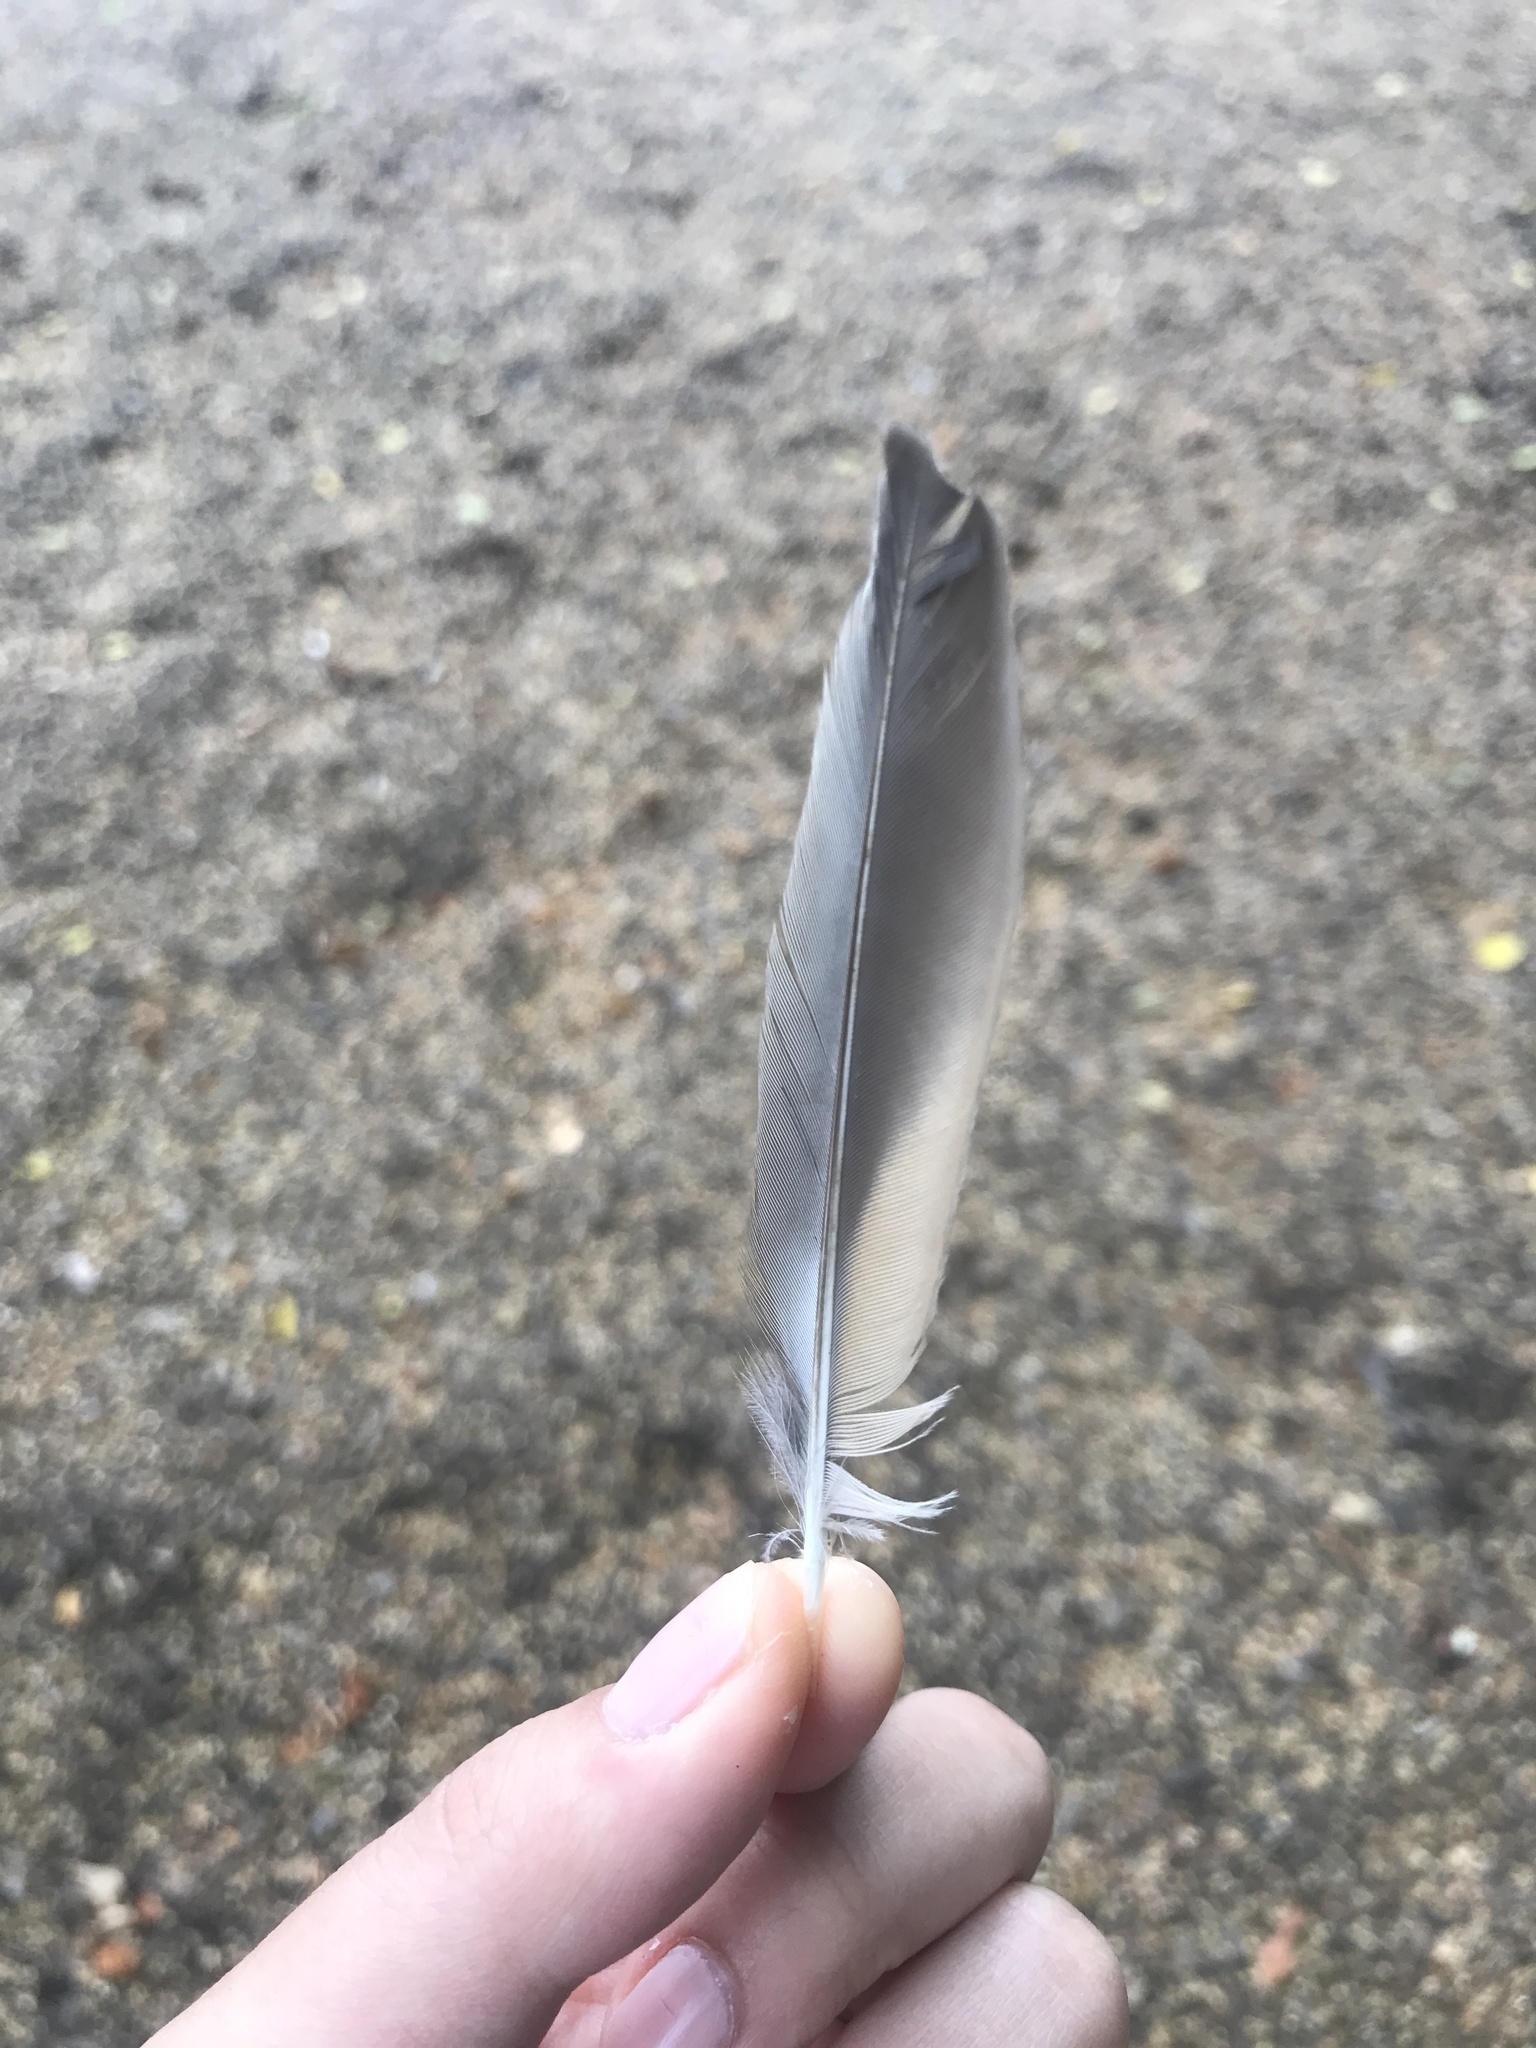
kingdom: Animalia
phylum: Chordata
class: Aves
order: Passeriformes
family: Turdidae
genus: Turdus
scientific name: Turdus migratorius
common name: American robin
